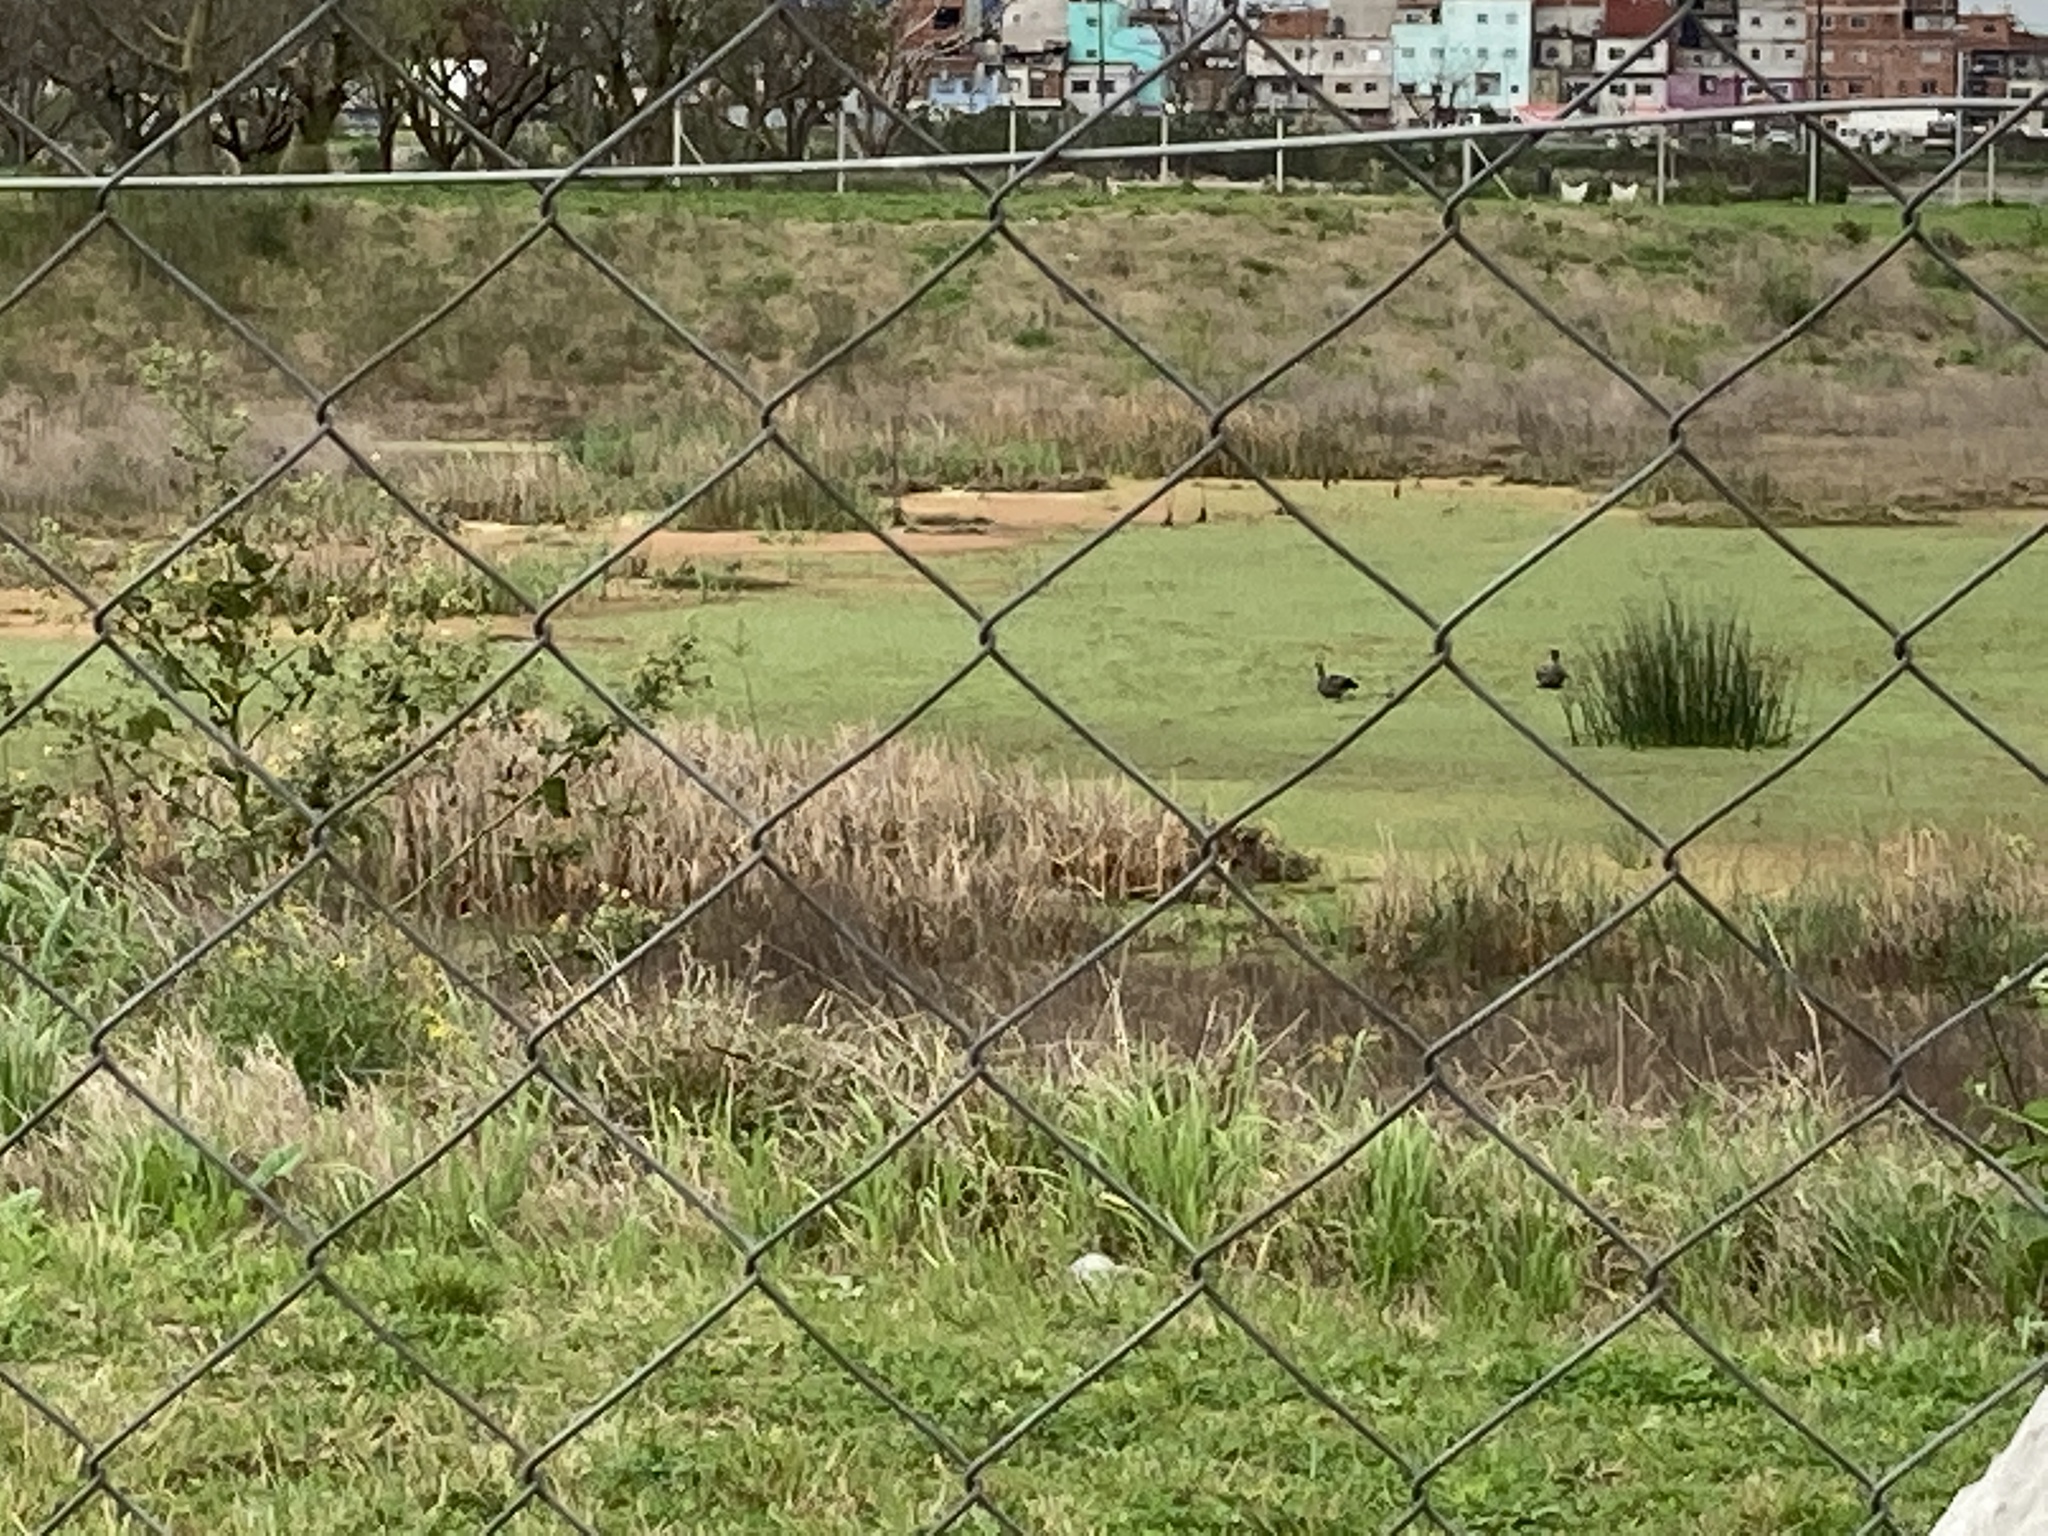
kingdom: Animalia
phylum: Chordata
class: Aves
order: Anseriformes
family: Anhimidae
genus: Chauna
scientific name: Chauna torquata
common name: Southern screamer
